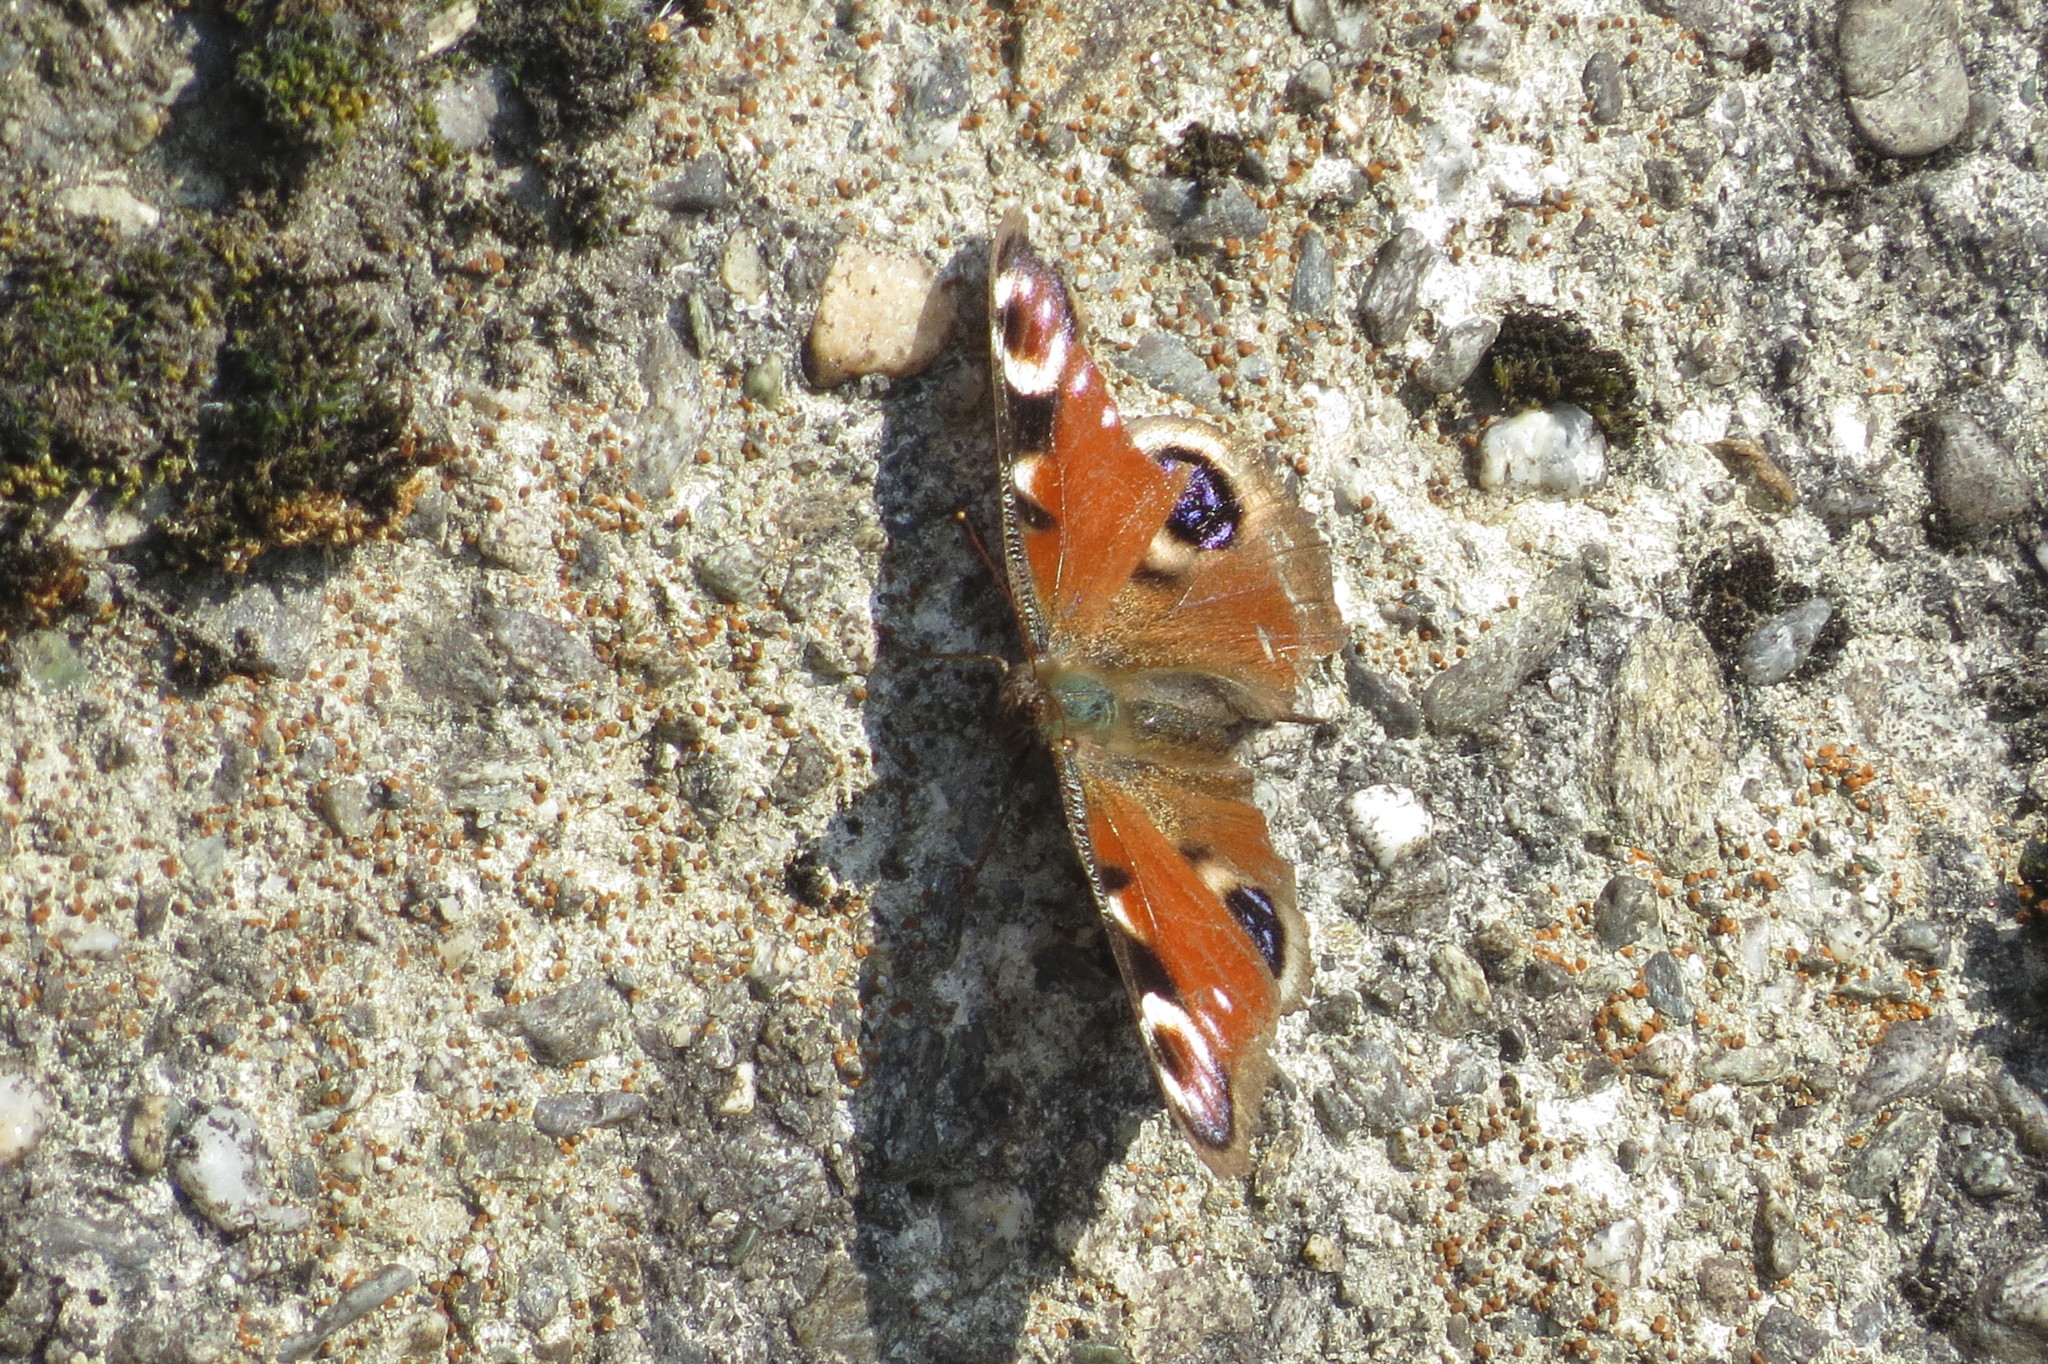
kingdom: Animalia
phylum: Arthropoda
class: Insecta
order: Lepidoptera
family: Nymphalidae
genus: Aglais
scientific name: Aglais io
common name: Peacock
